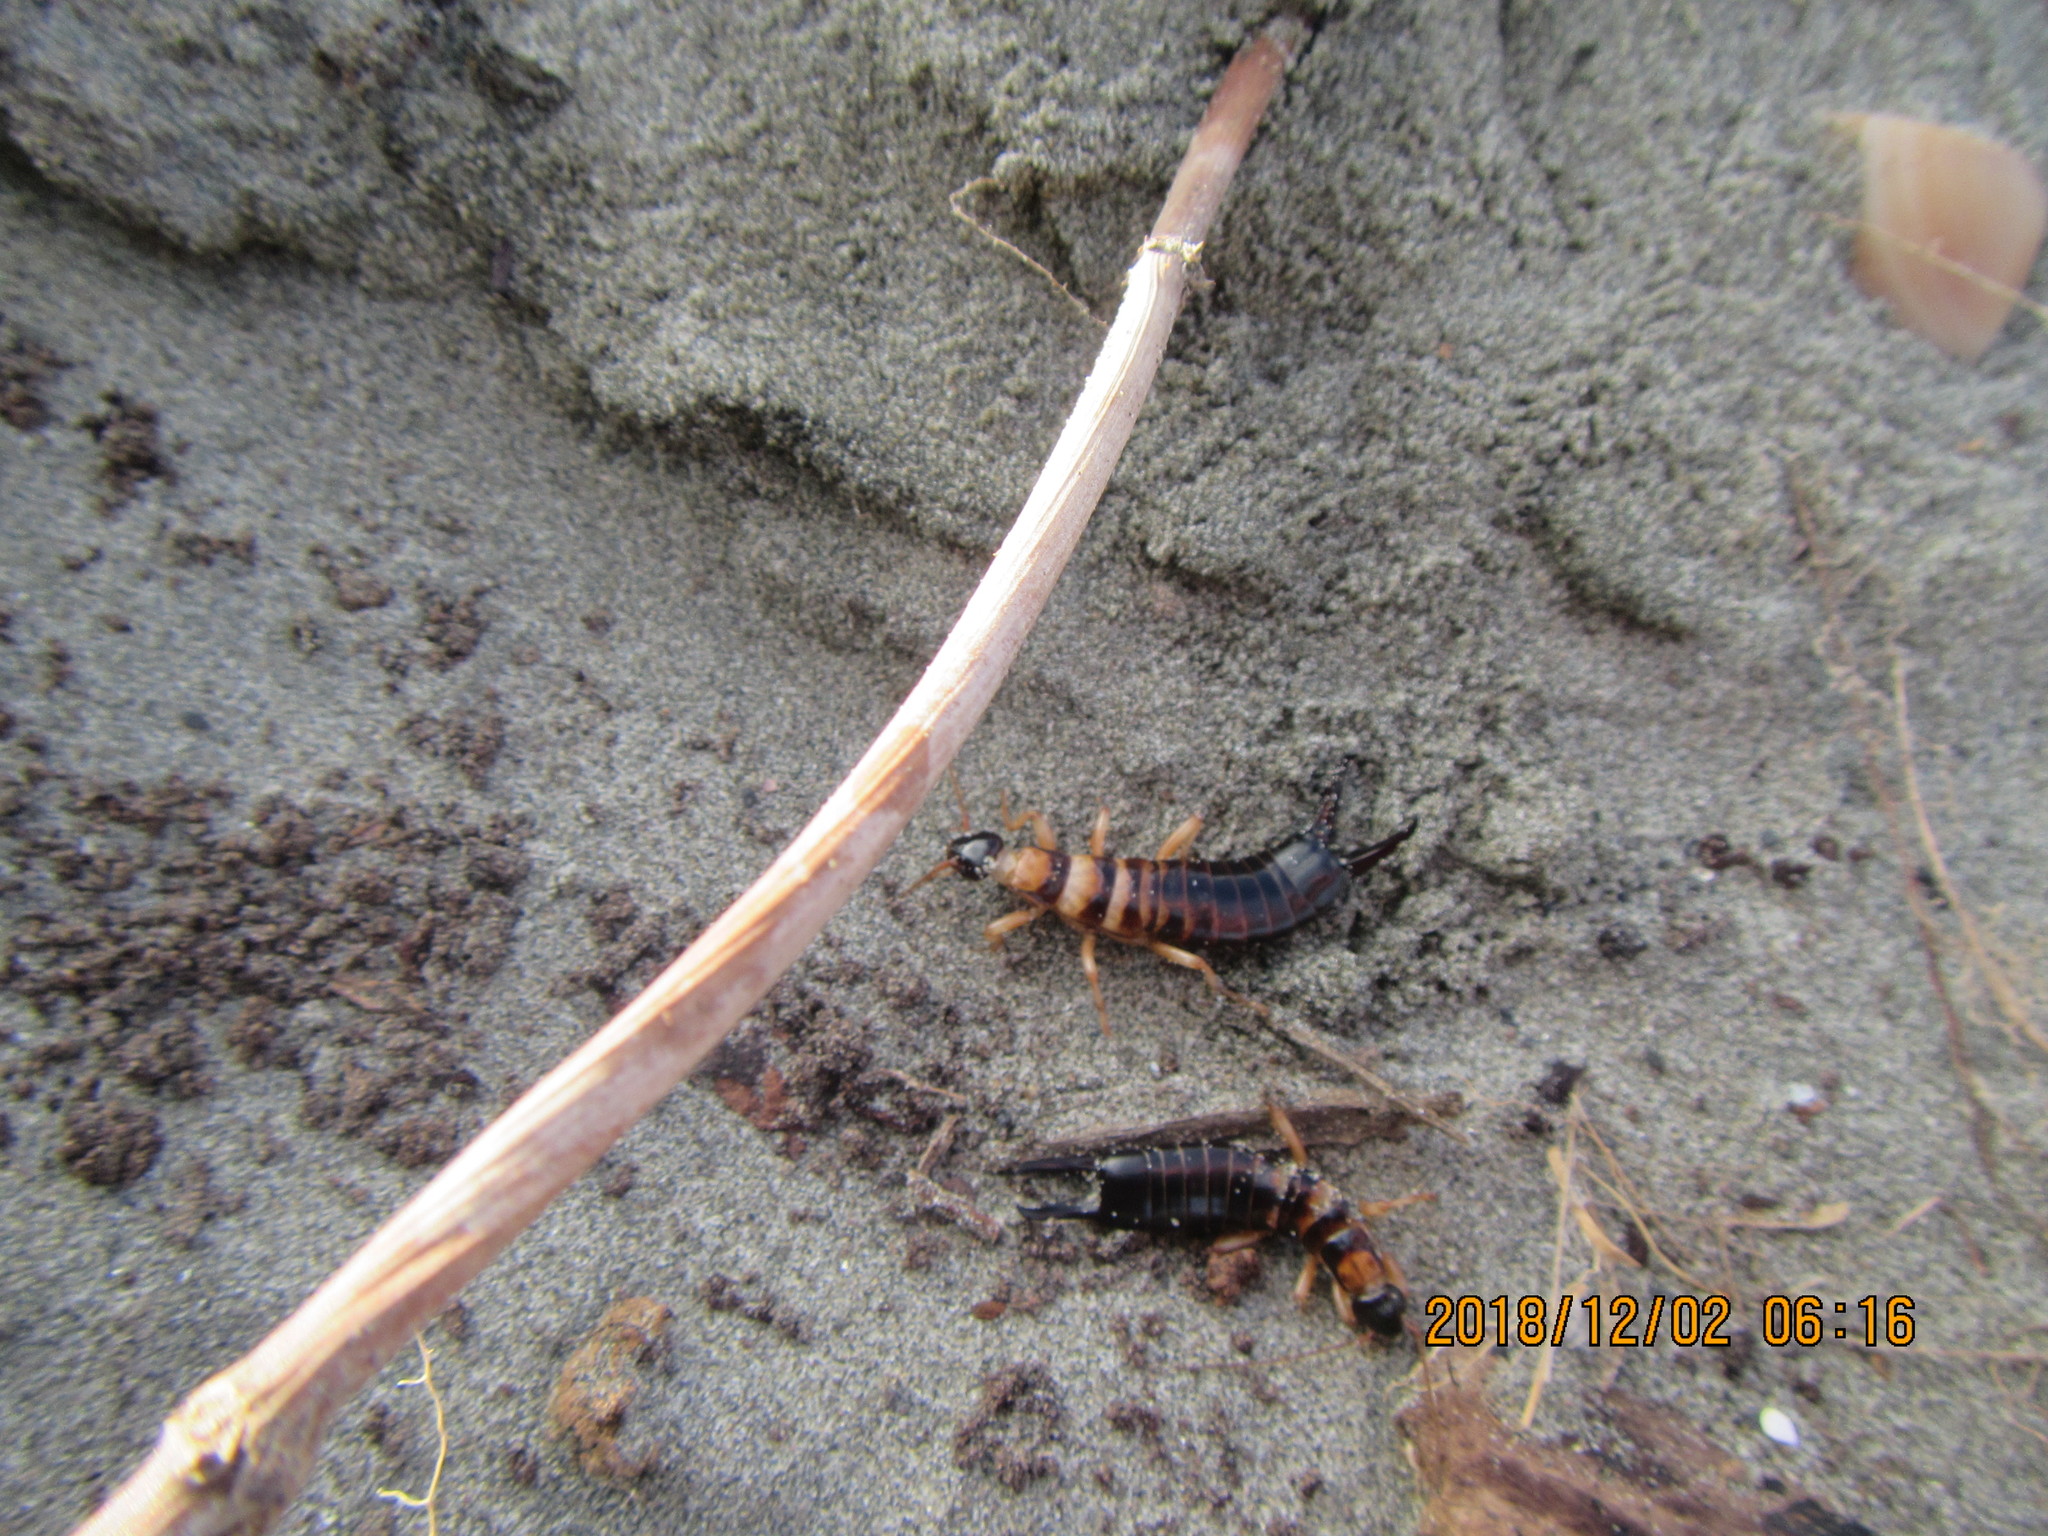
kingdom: Animalia
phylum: Arthropoda
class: Insecta
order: Dermaptera
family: Anisolabididae
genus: Anisolabis
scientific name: Anisolabis littorea
